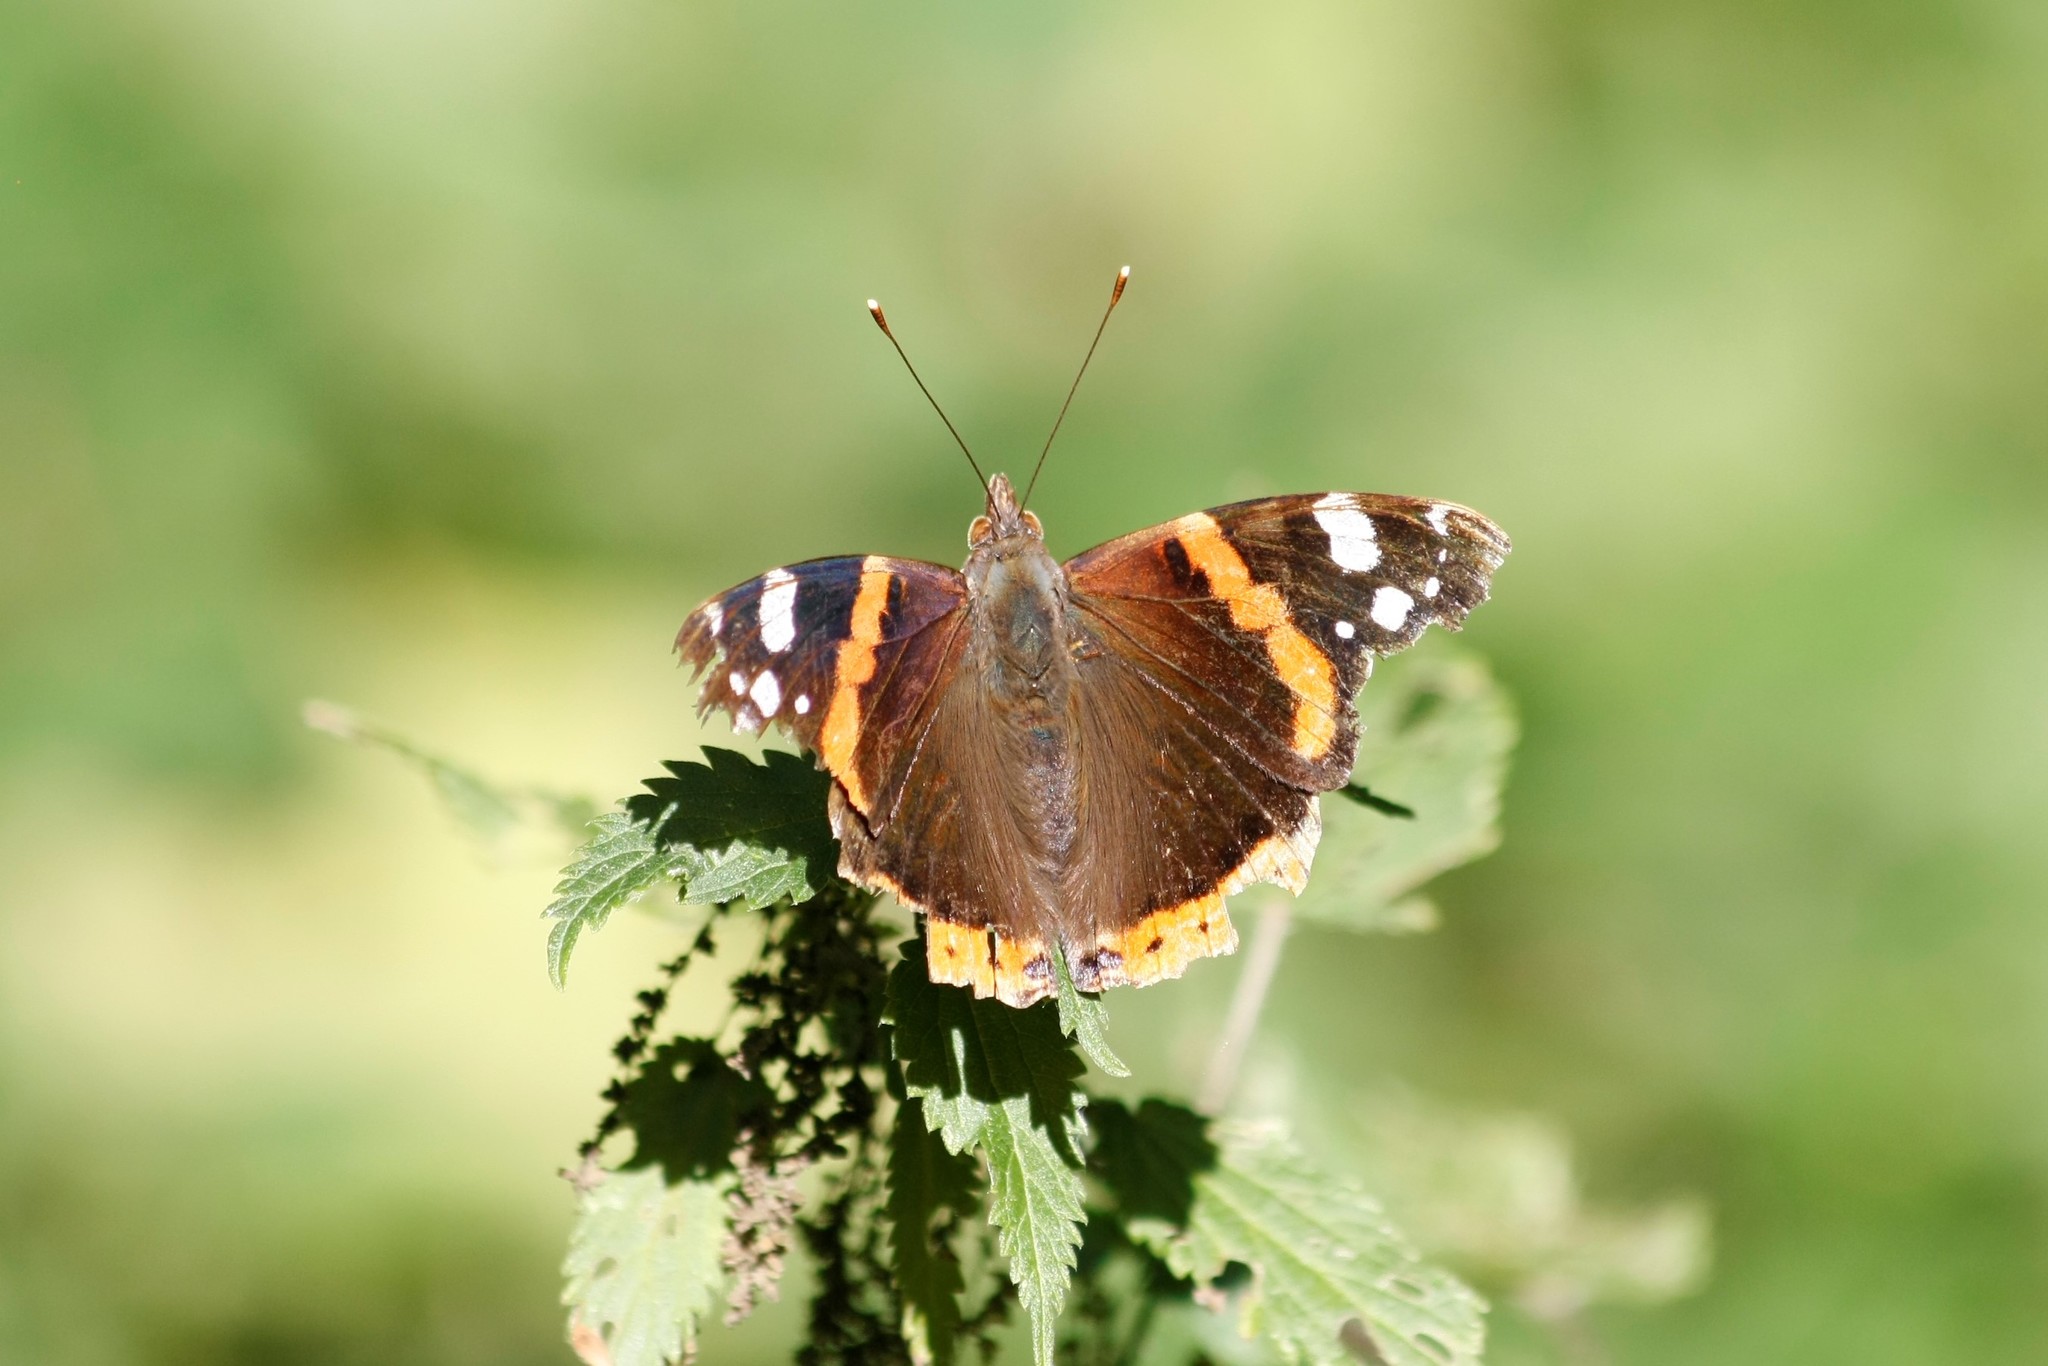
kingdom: Animalia
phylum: Arthropoda
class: Insecta
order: Lepidoptera
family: Nymphalidae
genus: Vanessa
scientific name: Vanessa atalanta
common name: Red admiral
